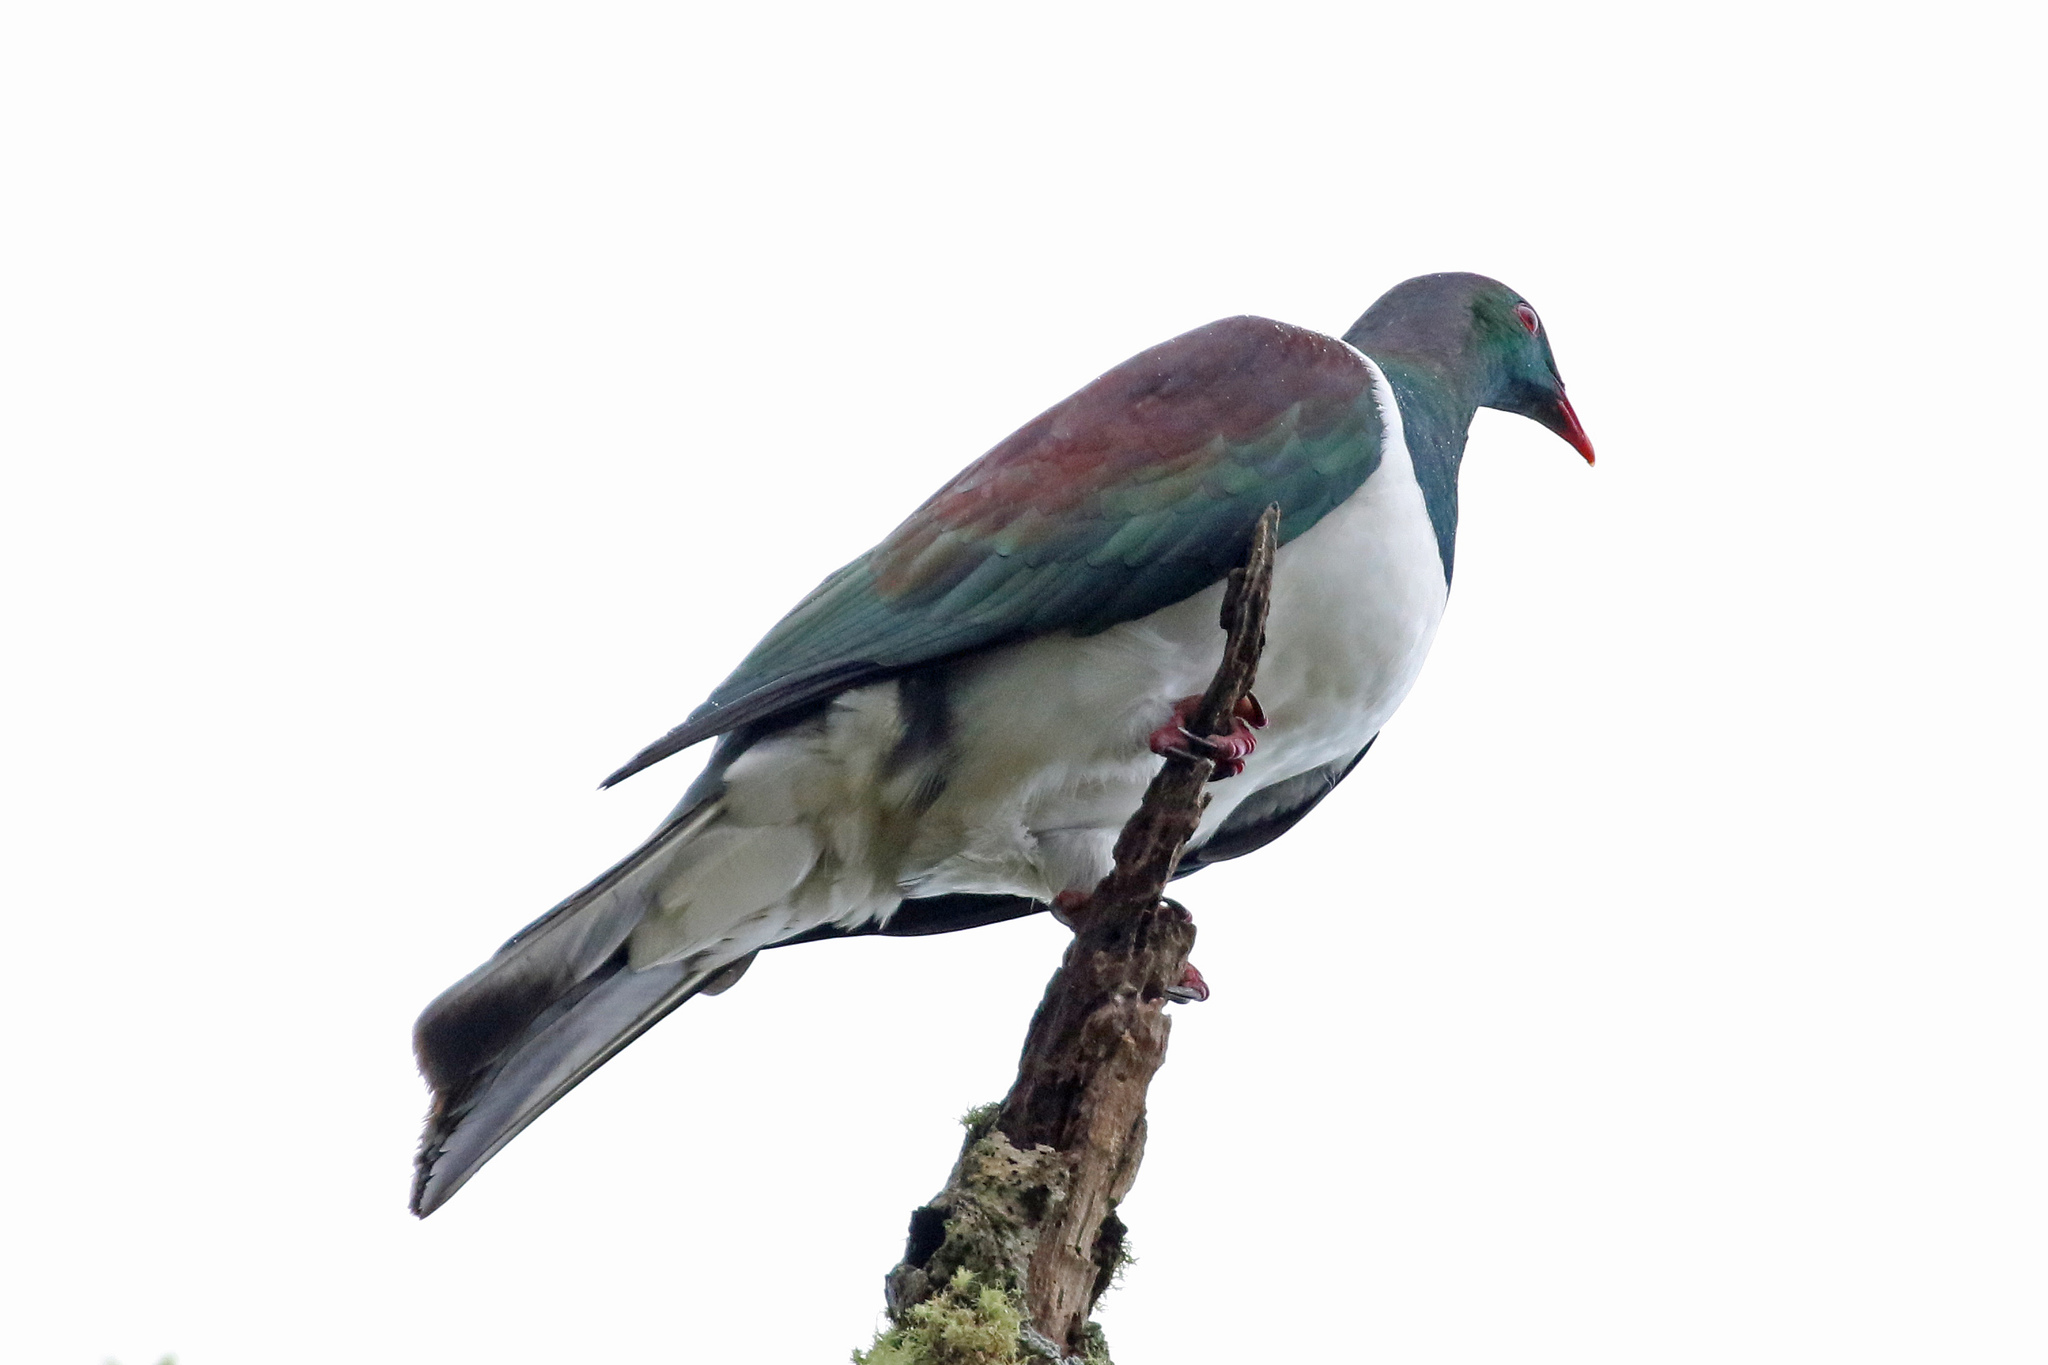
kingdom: Animalia
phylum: Chordata
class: Aves
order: Columbiformes
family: Columbidae
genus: Hemiphaga
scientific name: Hemiphaga novaeseelandiae
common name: New zealand pigeon
